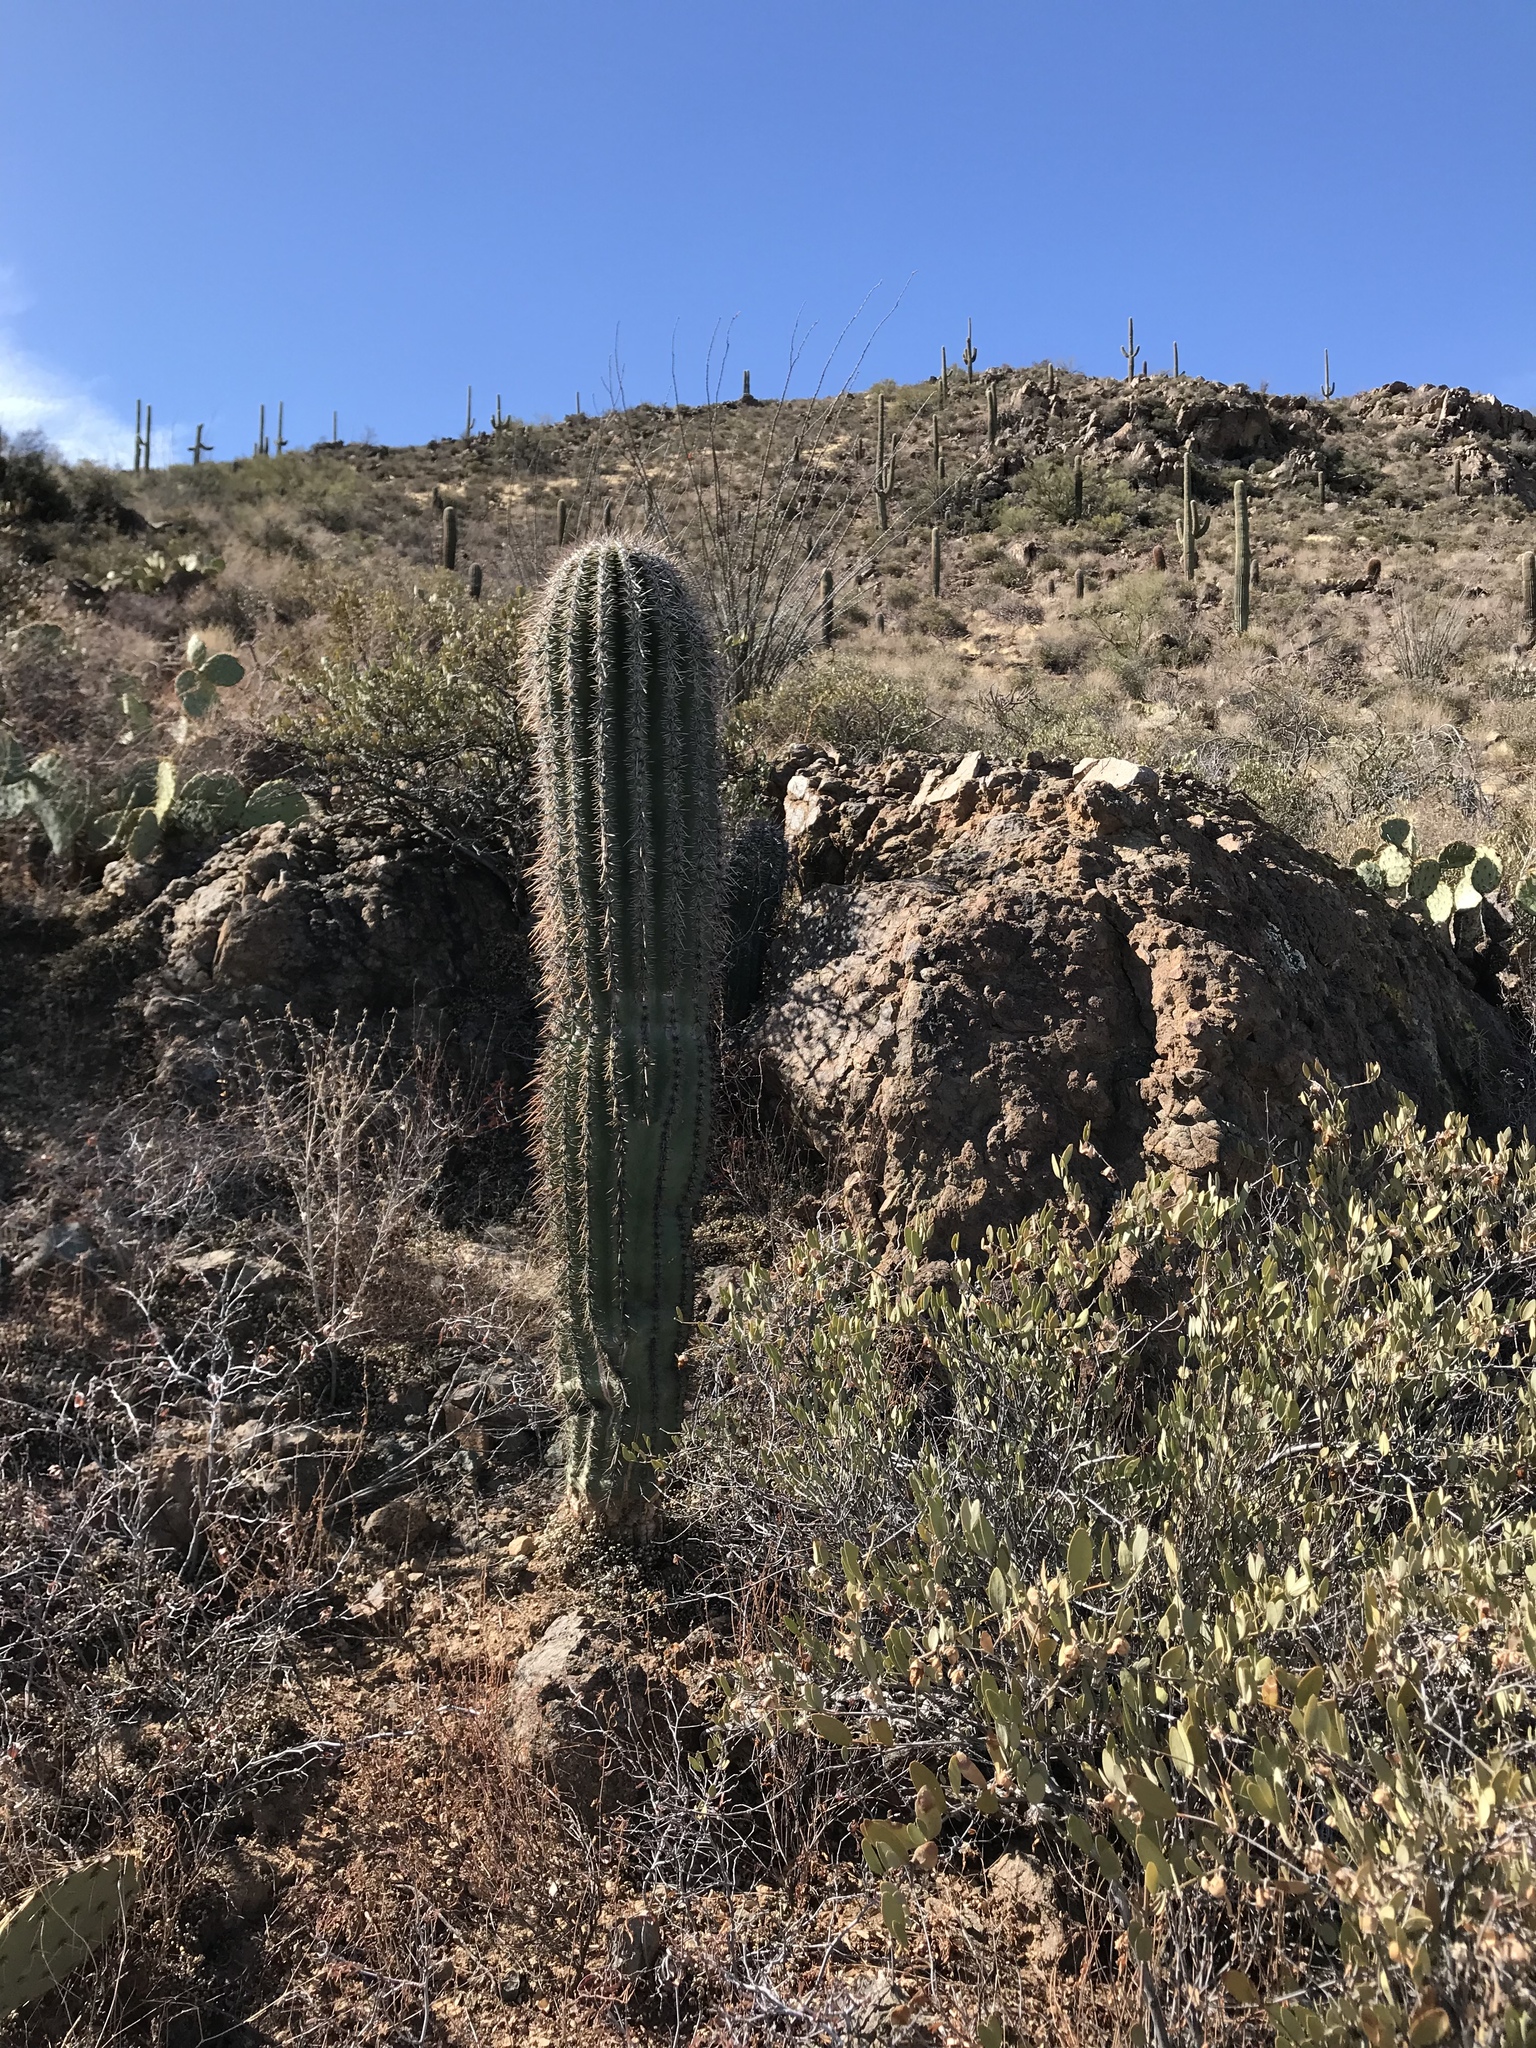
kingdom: Plantae
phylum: Tracheophyta
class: Magnoliopsida
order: Caryophyllales
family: Cactaceae
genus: Carnegiea
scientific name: Carnegiea gigantea
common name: Saguaro
